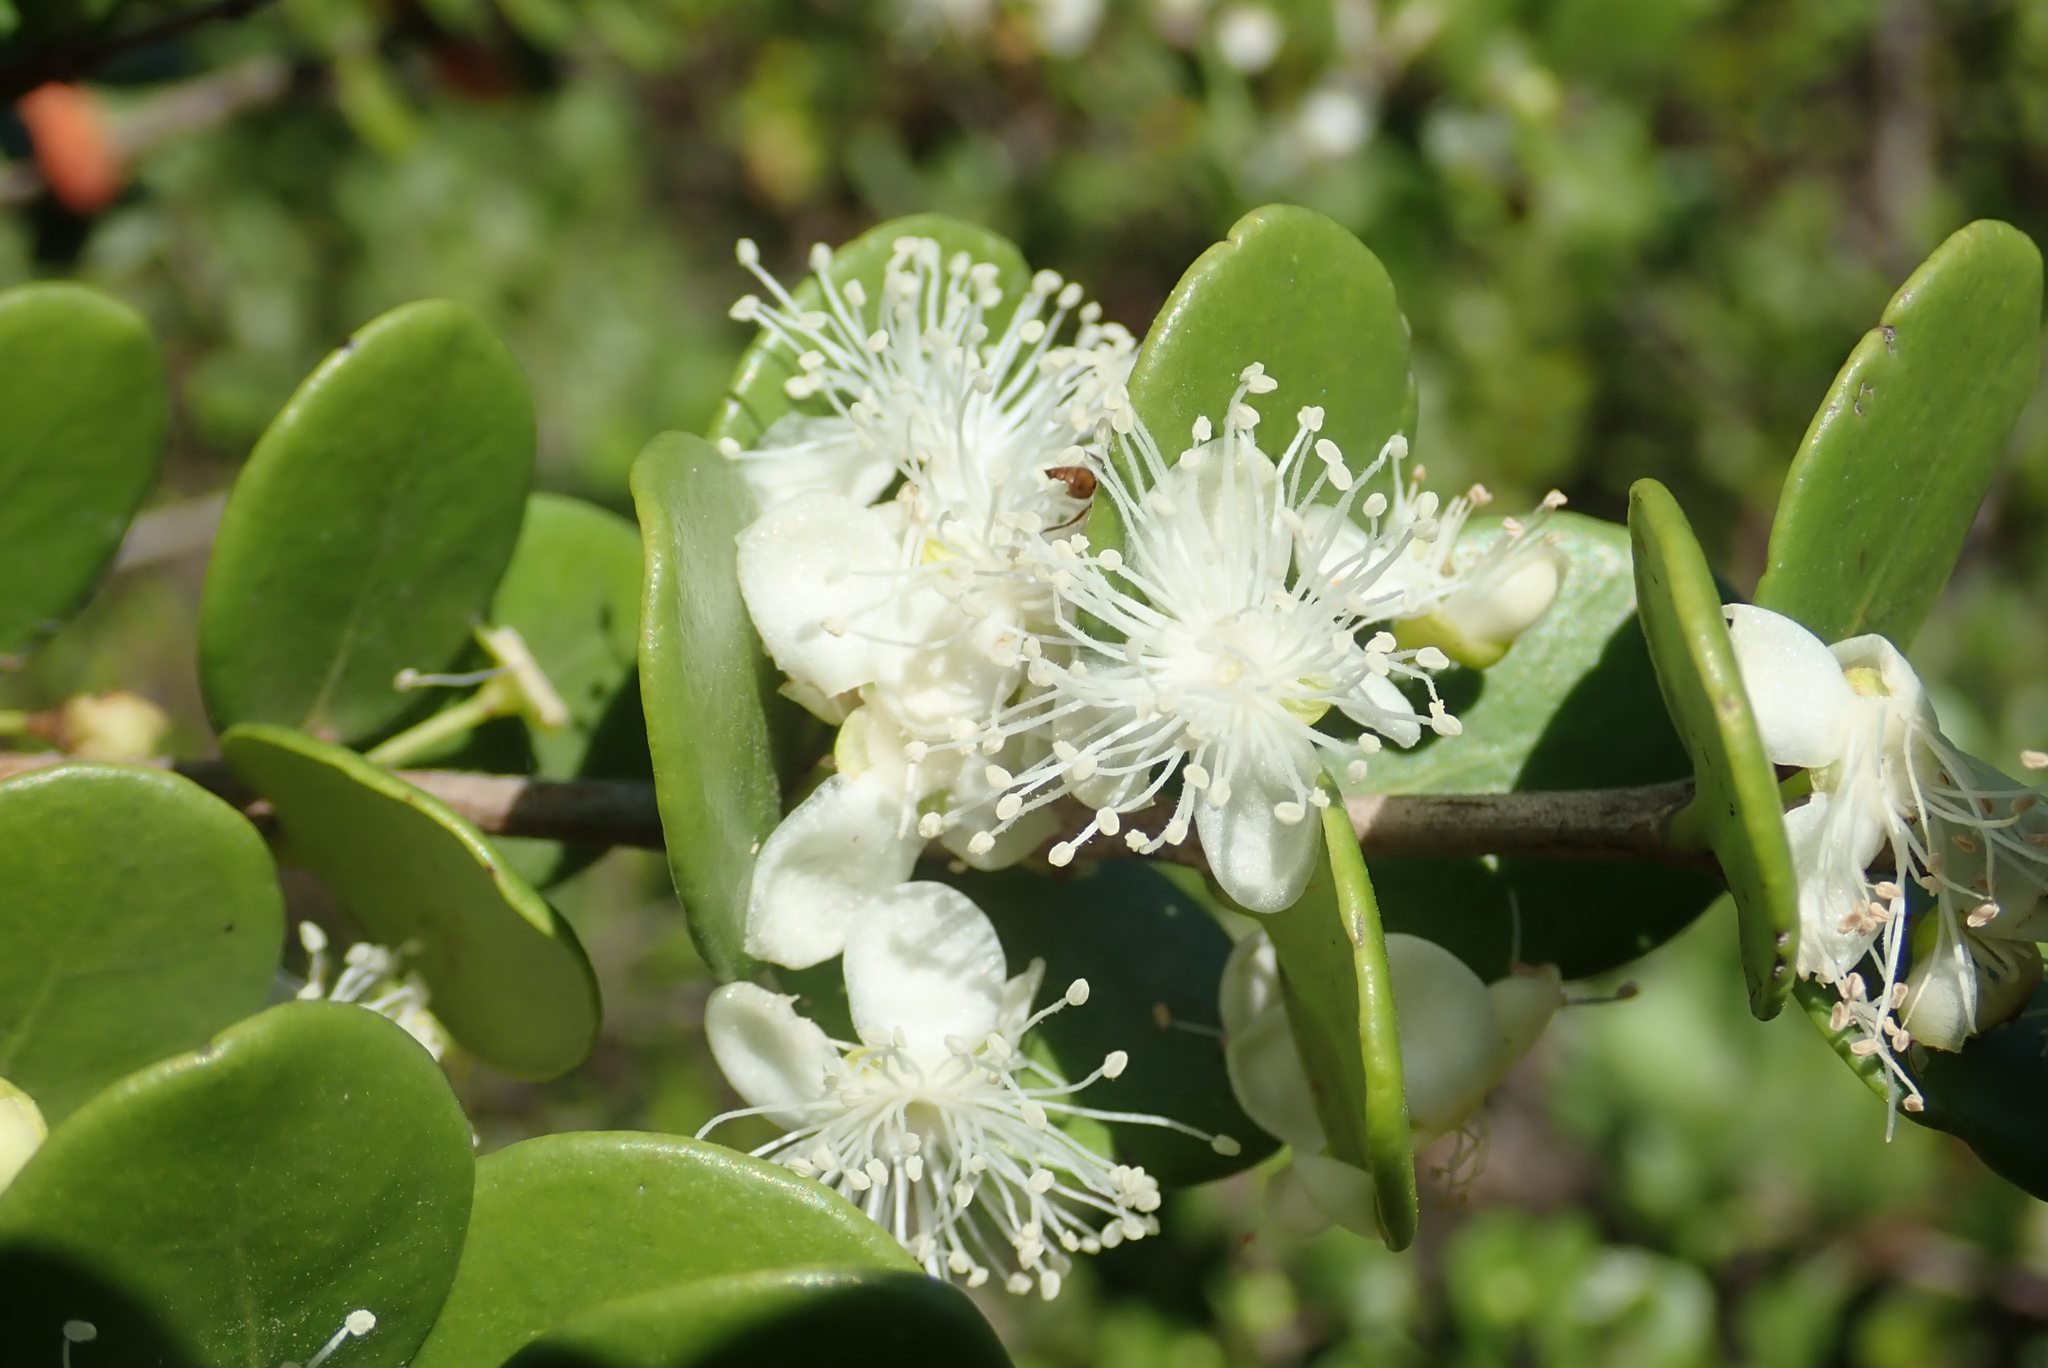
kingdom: Plantae
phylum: Tracheophyta
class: Magnoliopsida
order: Myrtales
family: Myrtaceae
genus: Eugenia
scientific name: Eugenia capensis
